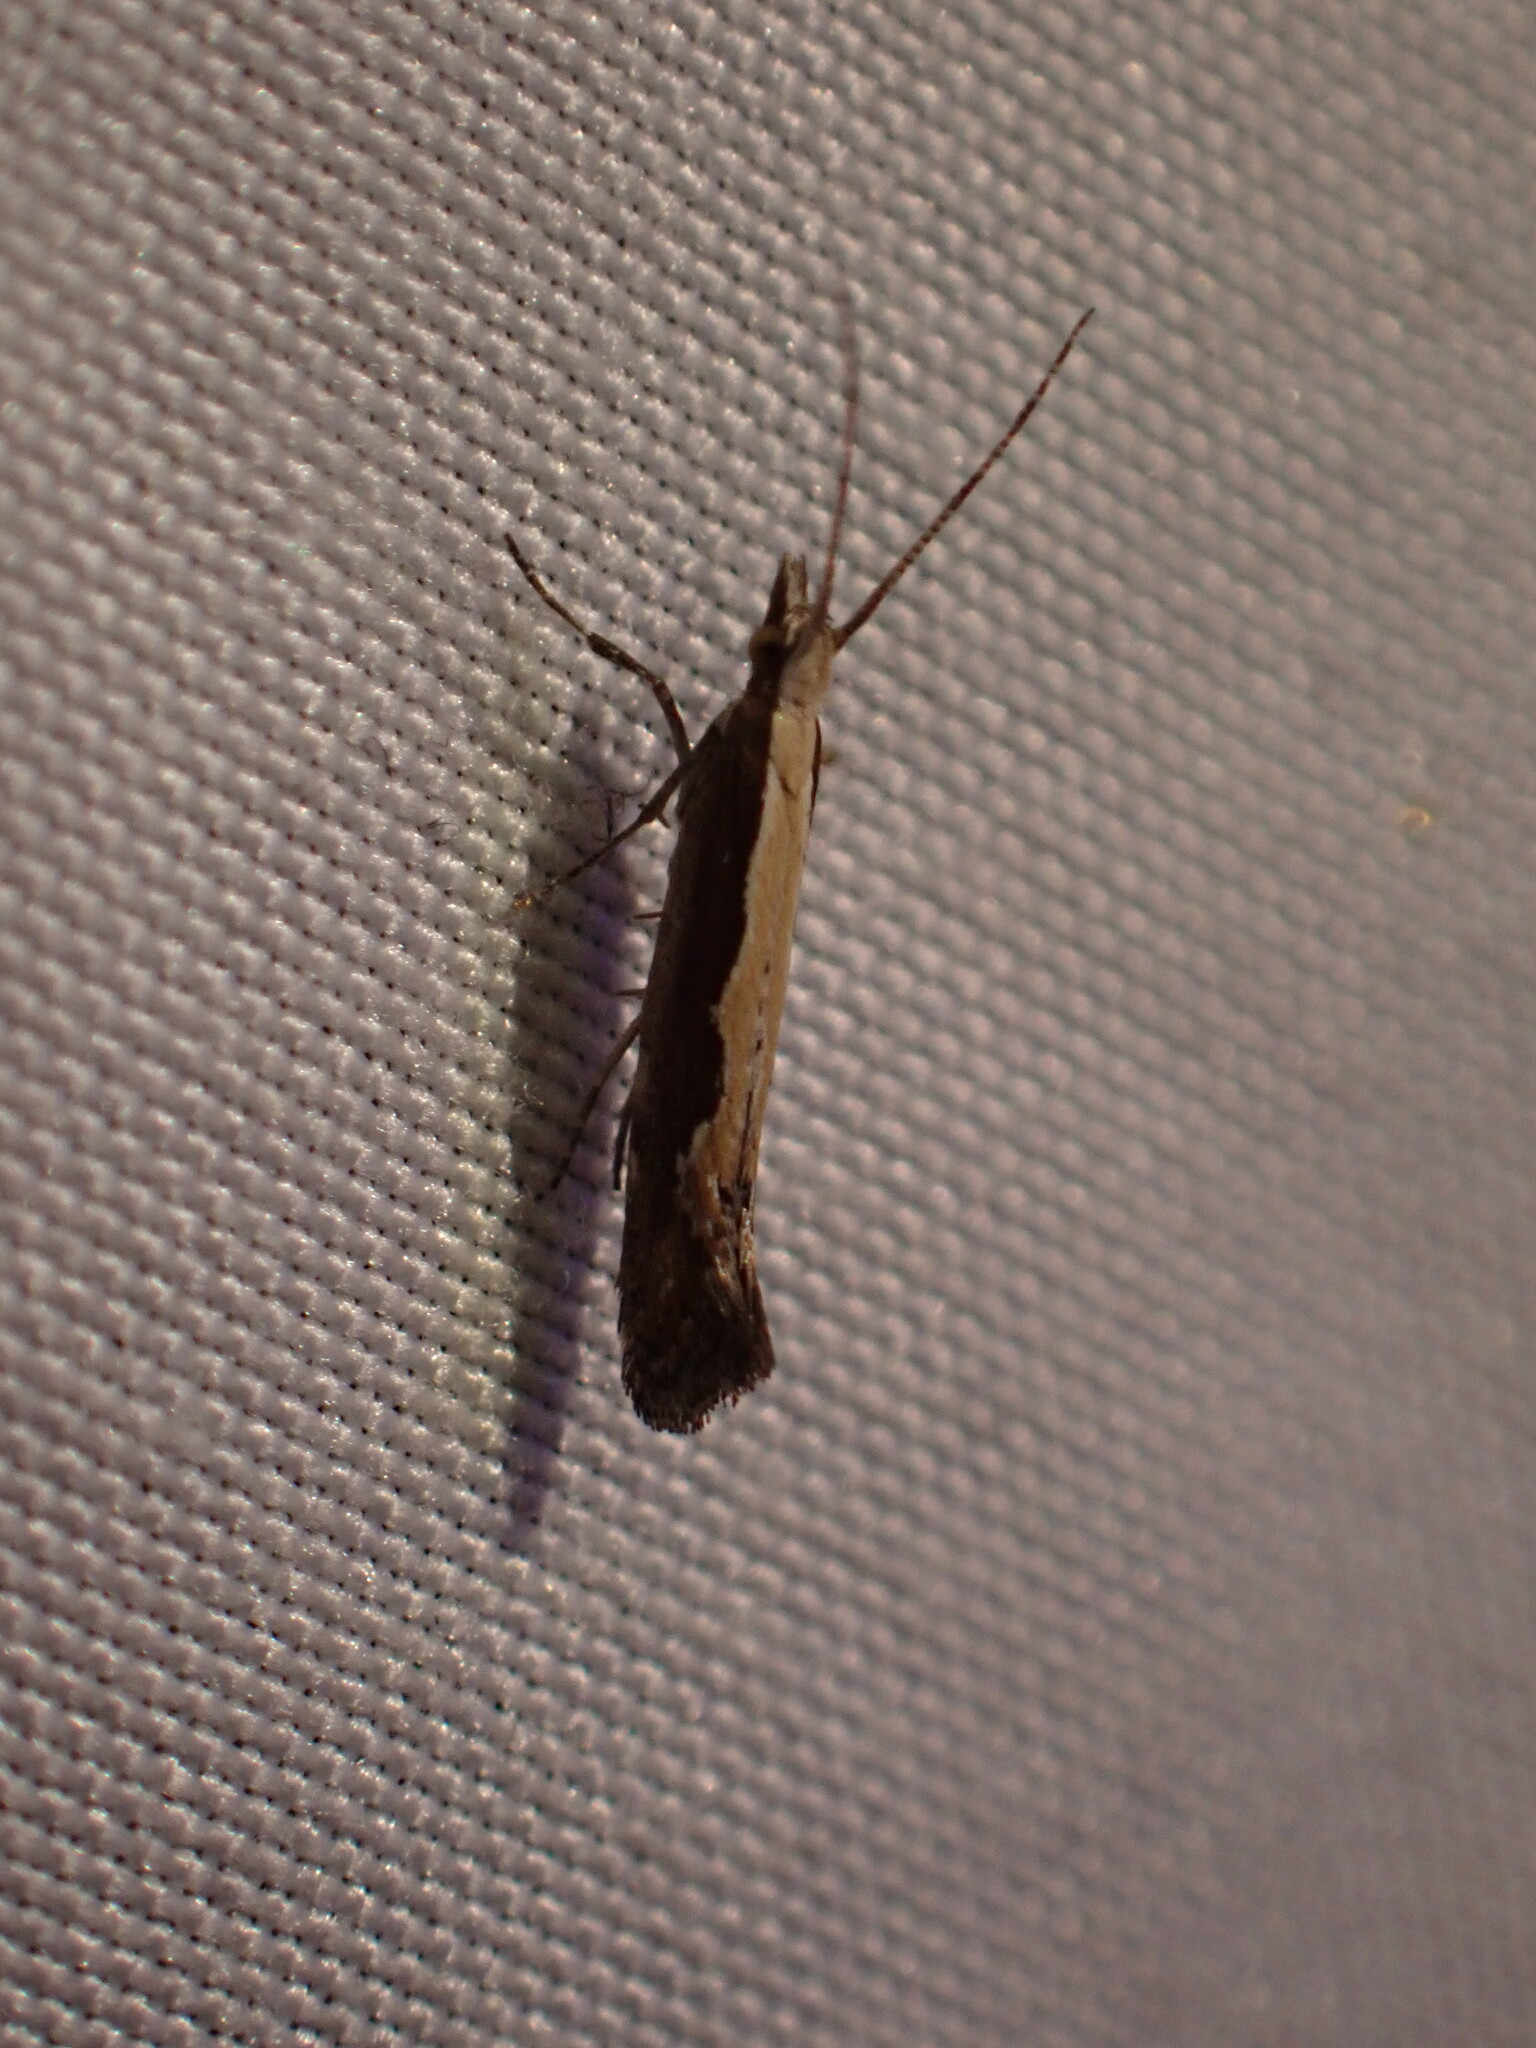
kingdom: Animalia
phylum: Arthropoda
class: Insecta
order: Lepidoptera
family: Plutellidae
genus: Plutella
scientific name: Plutella xylostella
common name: Diamond-back moth
